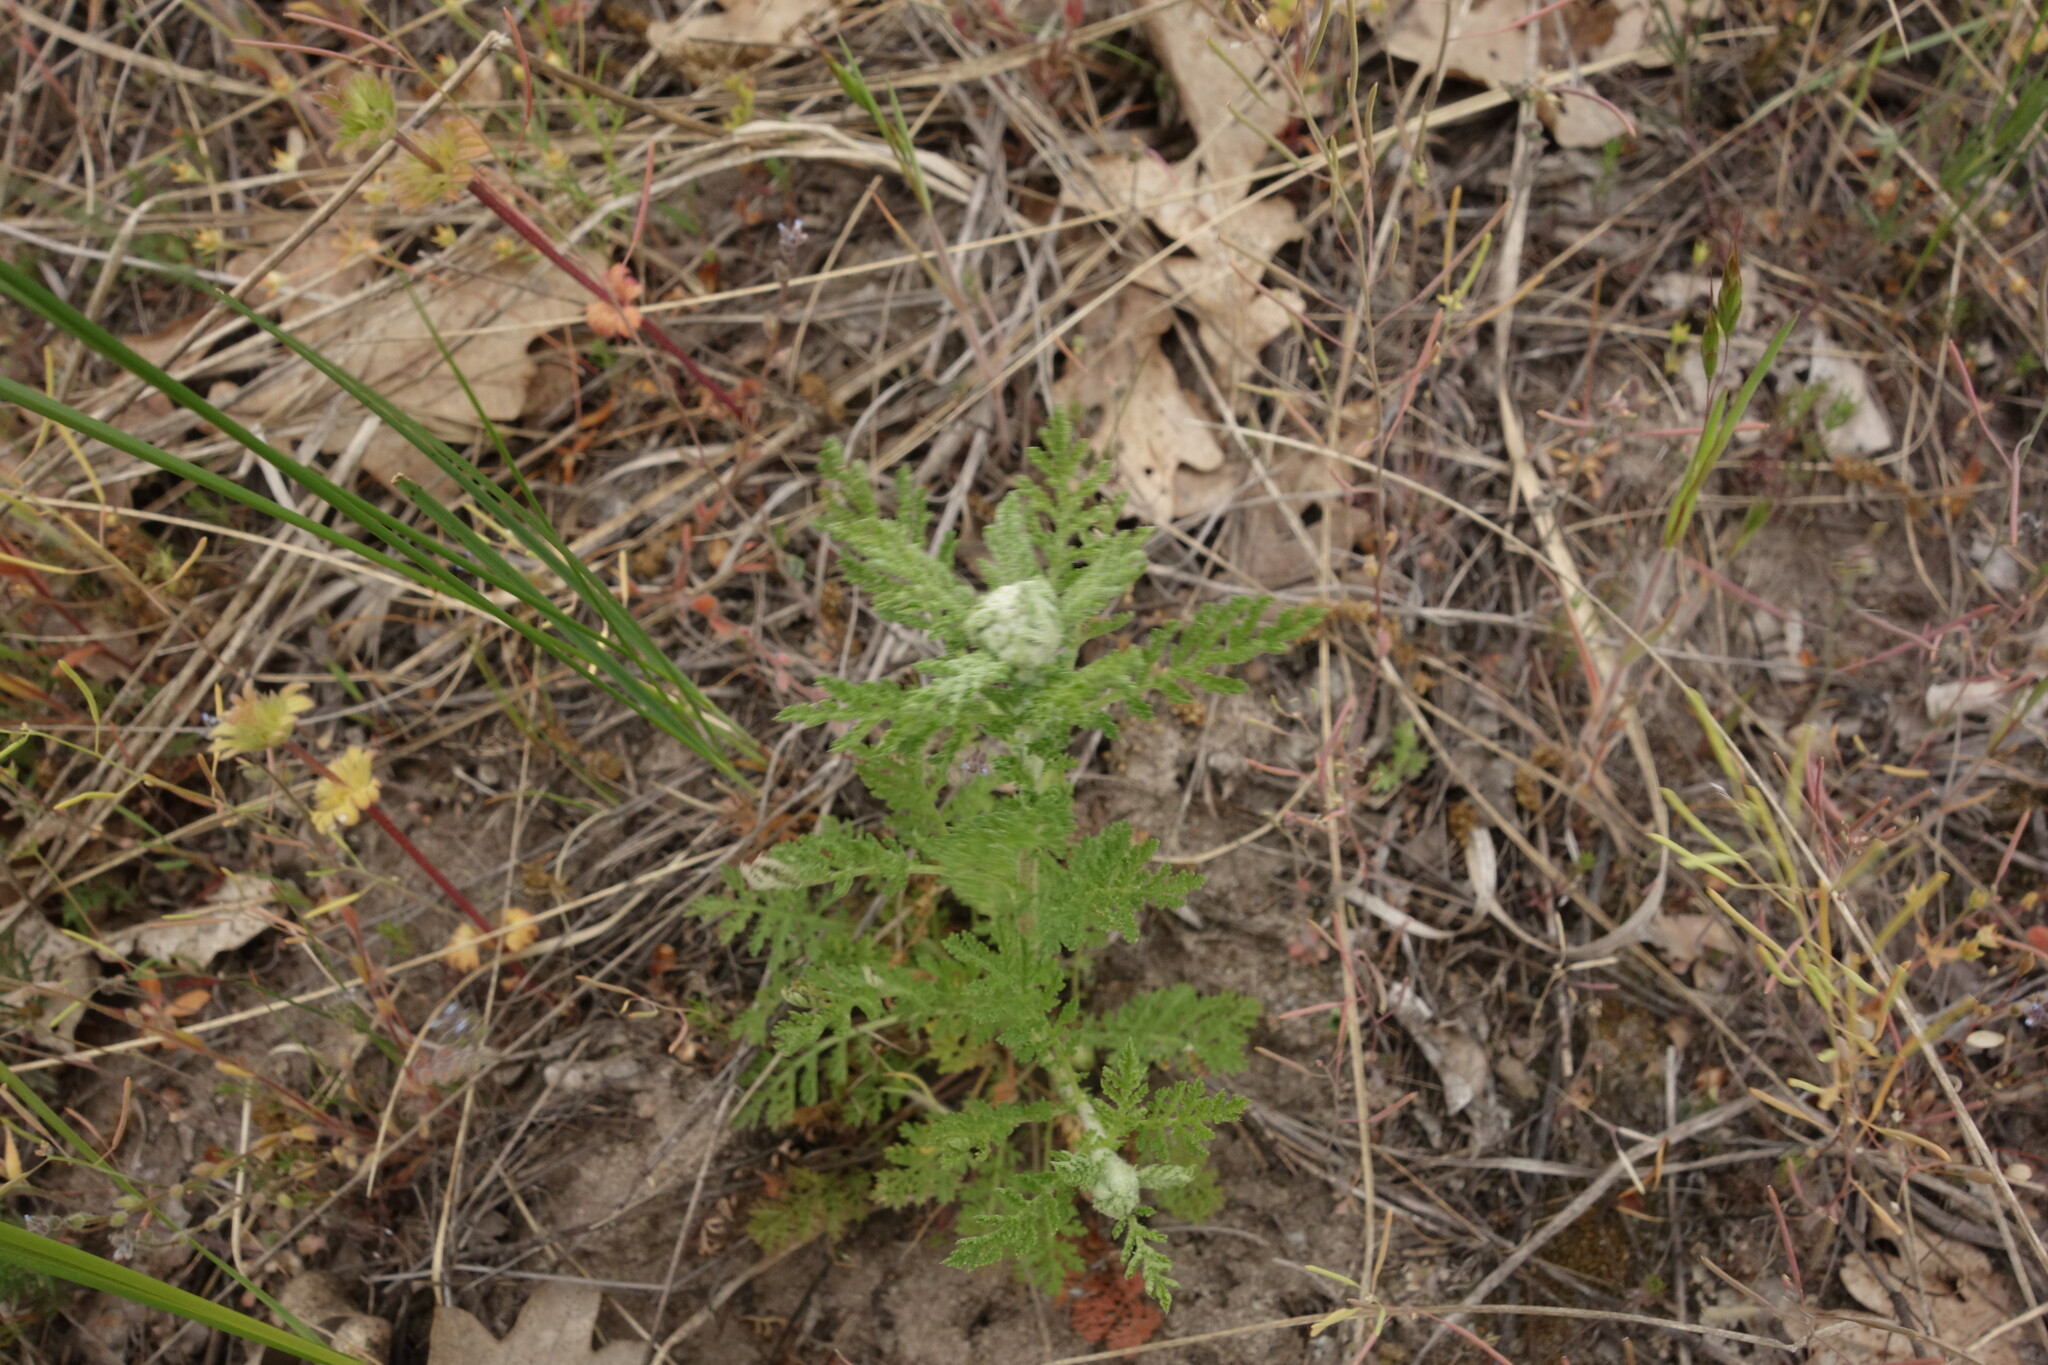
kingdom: Plantae
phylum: Tracheophyta
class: Magnoliopsida
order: Asterales
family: Asteraceae
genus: Achillea
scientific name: Achillea nobilis
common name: Noble yarrow
